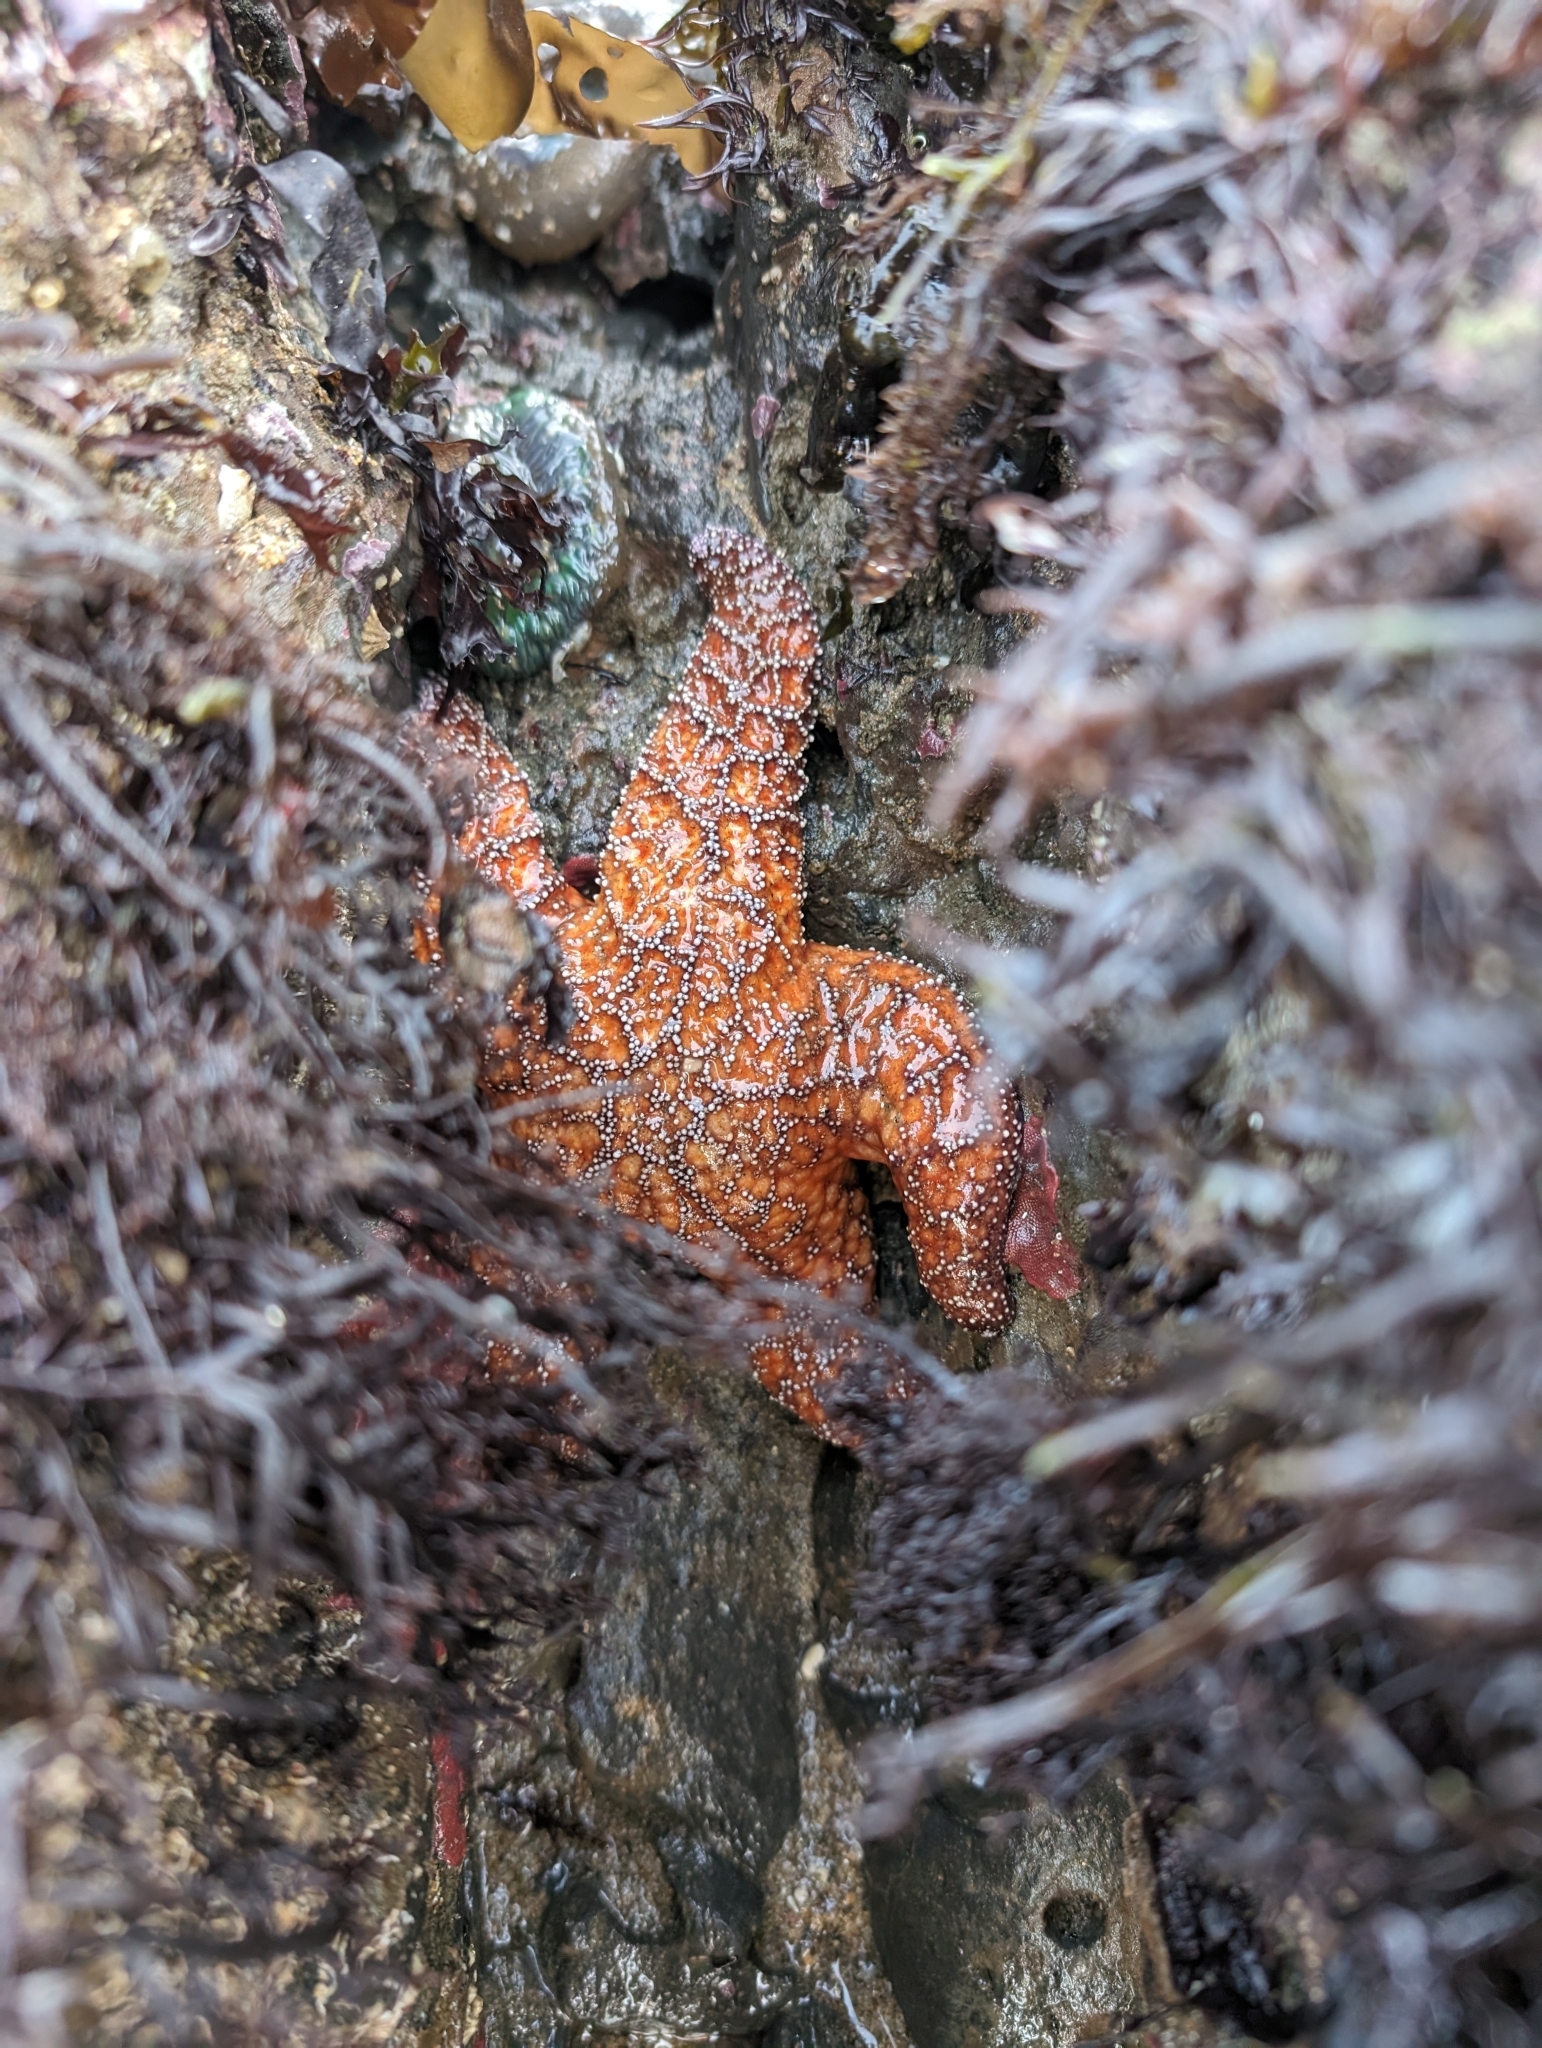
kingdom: Animalia
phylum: Echinodermata
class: Asteroidea
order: Forcipulatida
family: Asteriidae
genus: Pisaster
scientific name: Pisaster ochraceus
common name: Ochre stars
